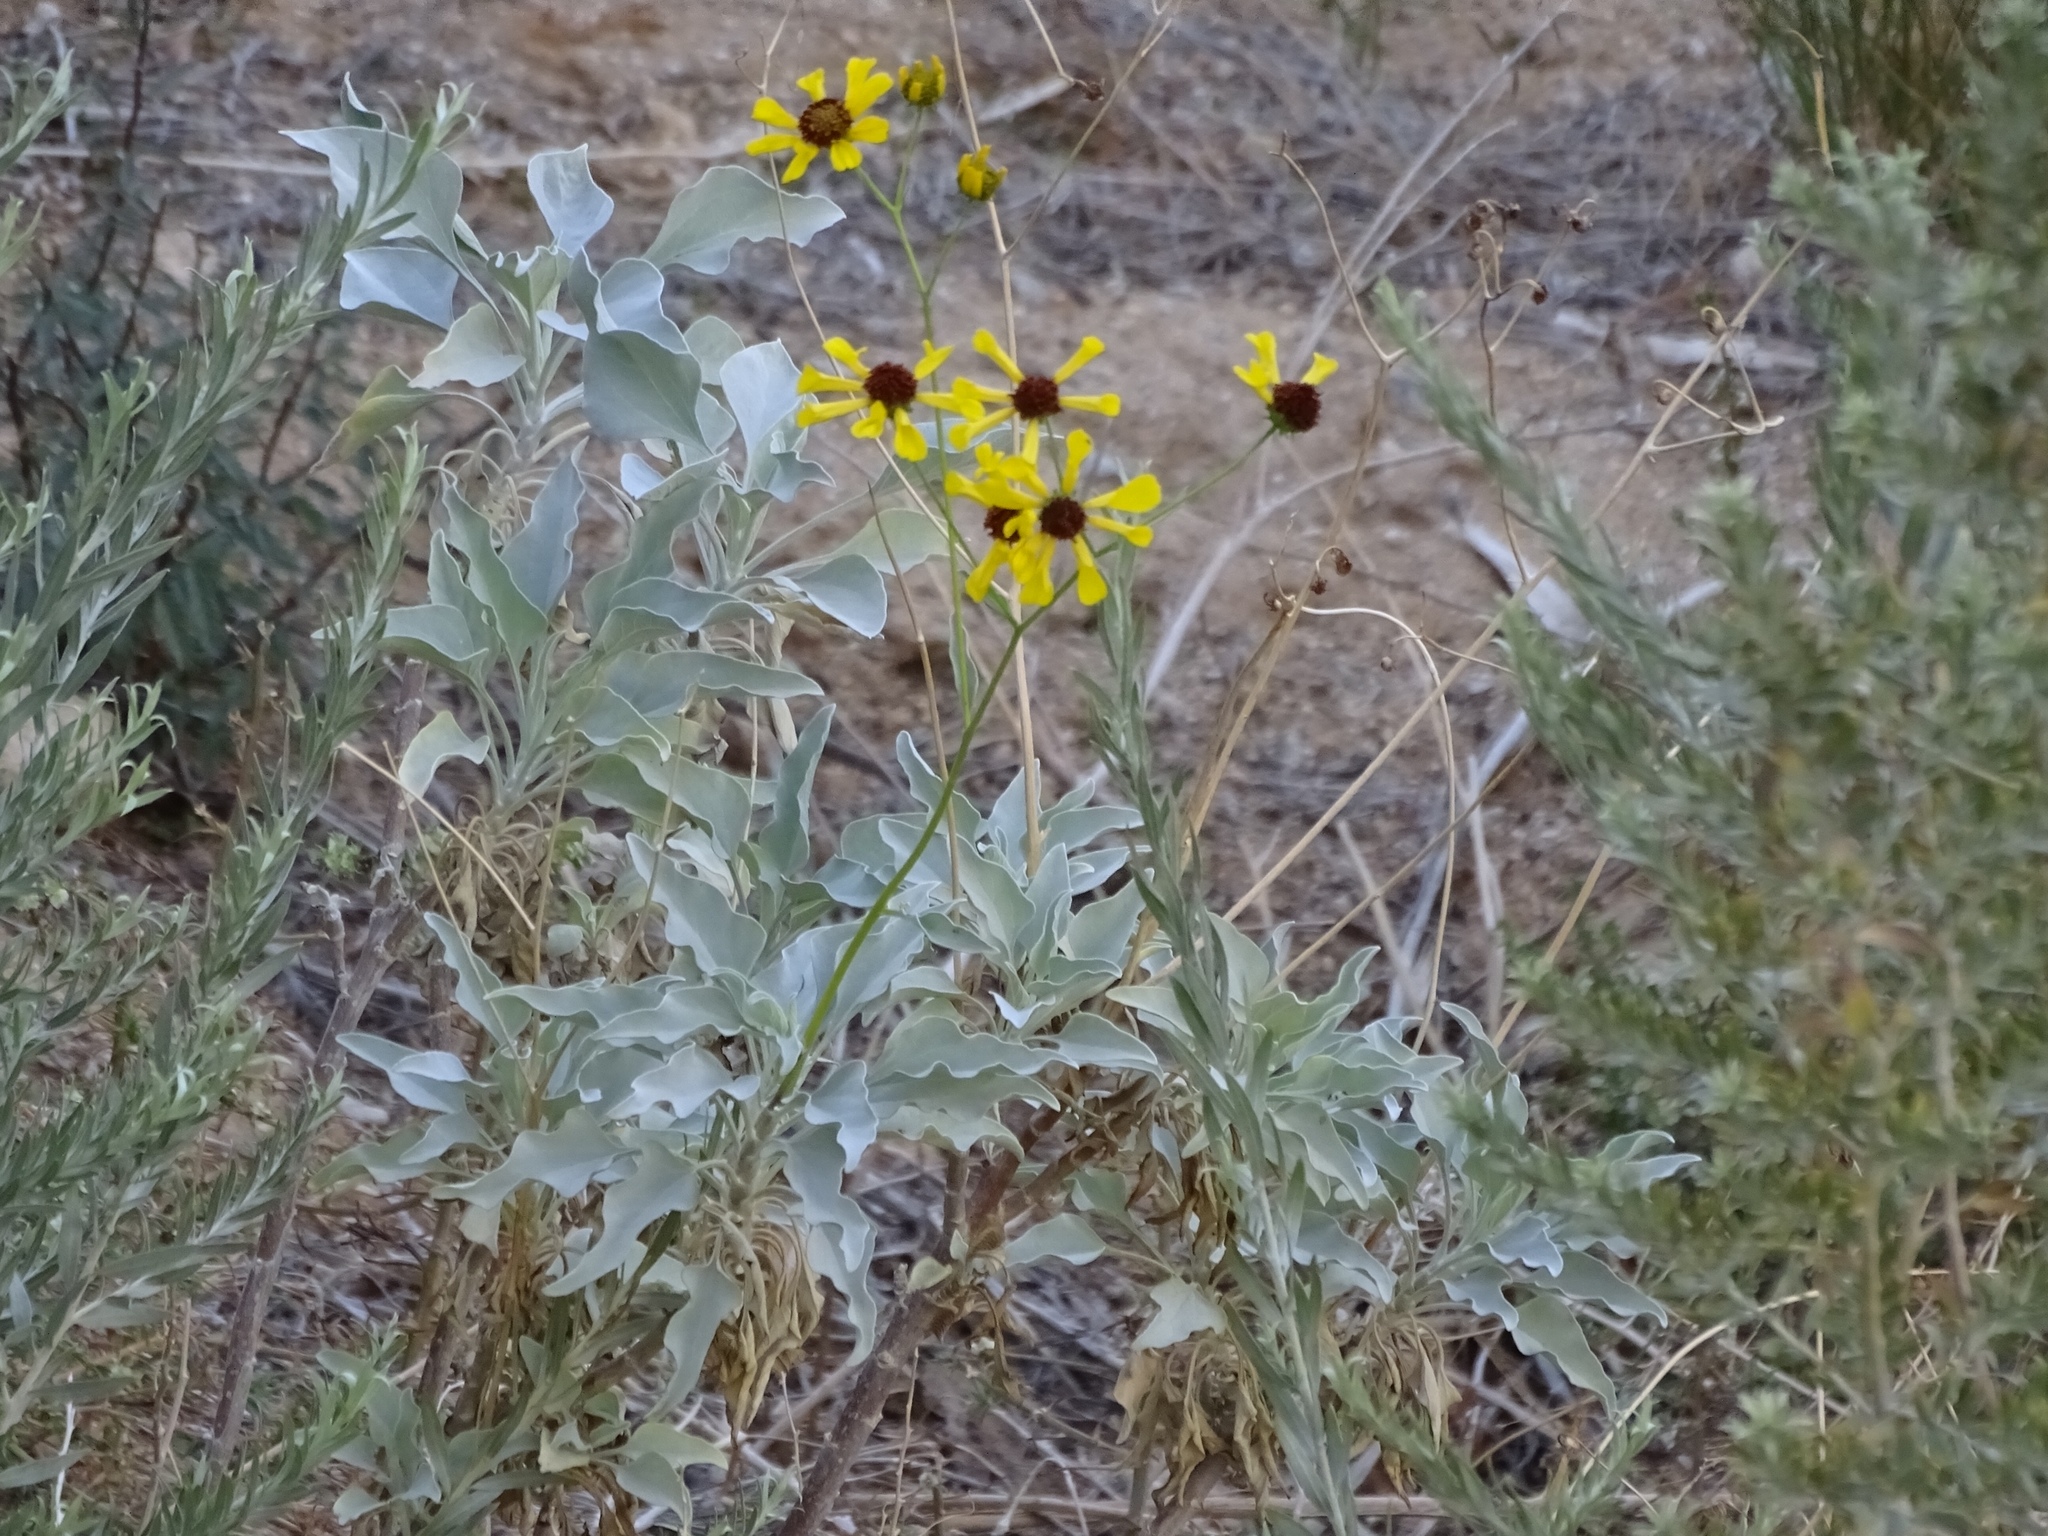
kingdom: Plantae
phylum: Tracheophyta
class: Magnoliopsida
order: Asterales
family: Asteraceae
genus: Encelia
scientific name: Encelia farinosa
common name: Brittlebush
